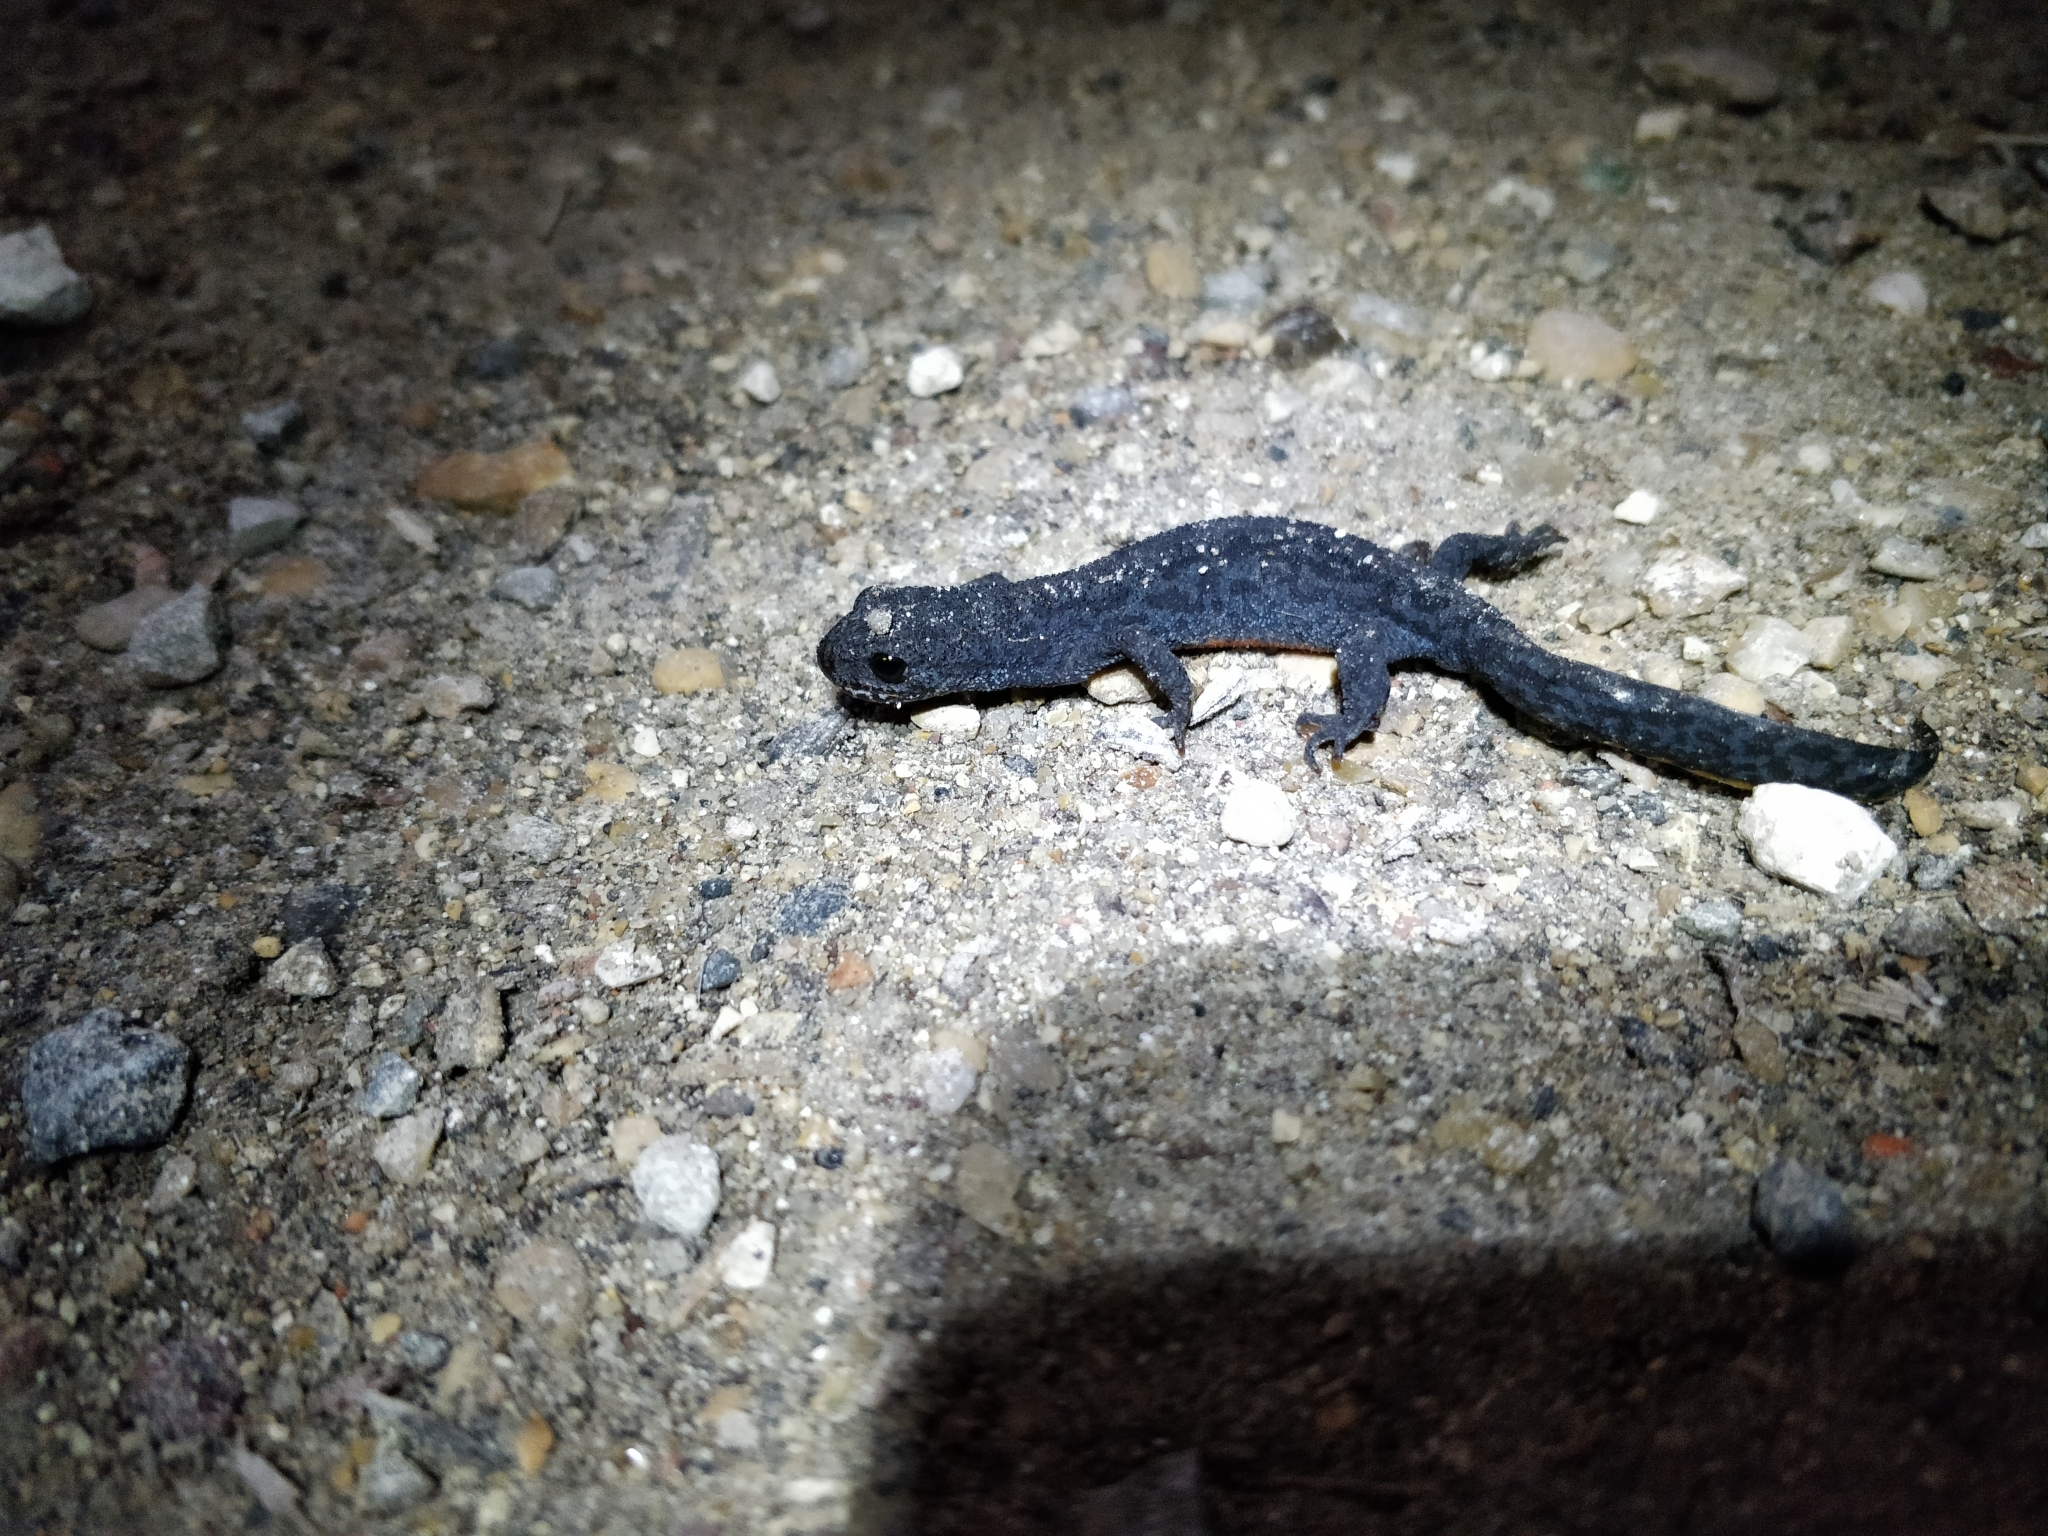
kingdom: Animalia
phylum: Chordata
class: Amphibia
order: Caudata
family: Salamandridae
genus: Ichthyosaura
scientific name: Ichthyosaura alpestris
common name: Alpine newt
